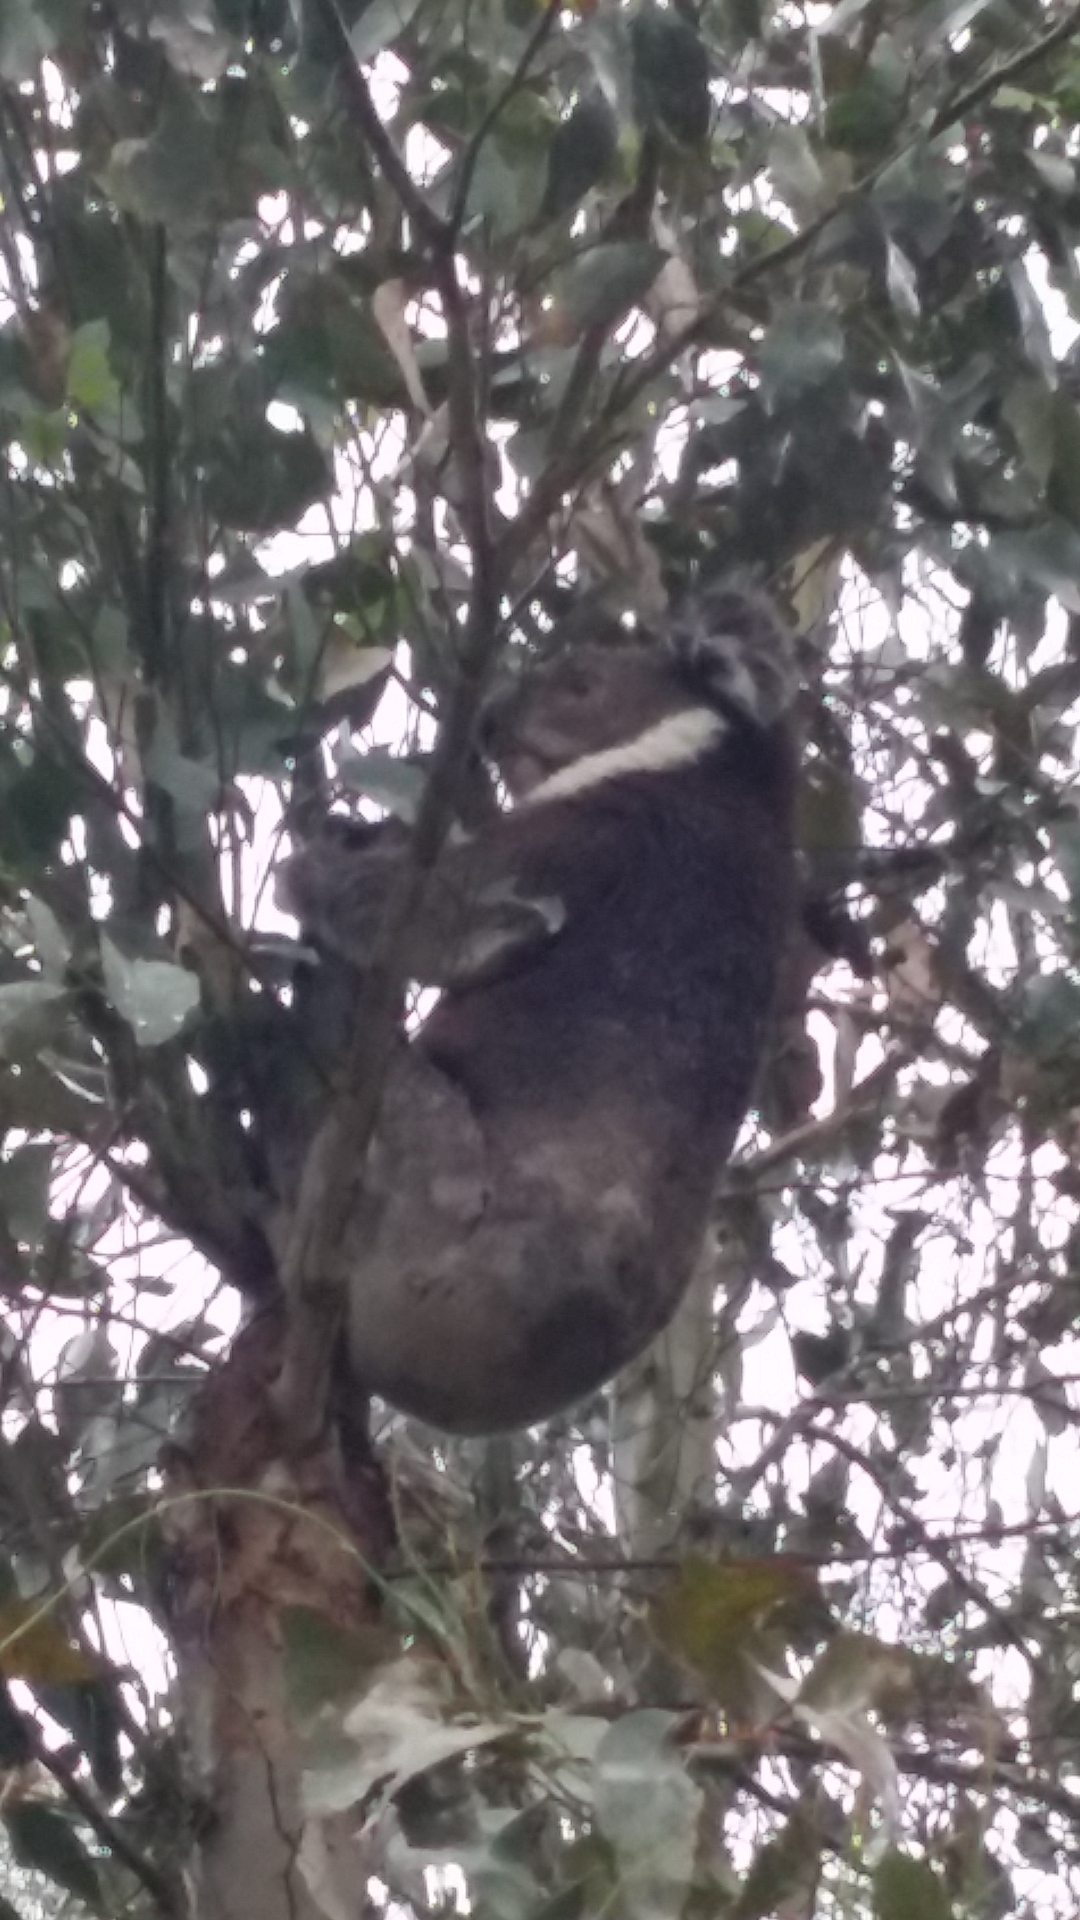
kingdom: Animalia
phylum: Chordata
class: Mammalia
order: Diprotodontia
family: Phascolarctidae
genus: Phascolarctos
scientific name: Phascolarctos cinereus
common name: Koala
